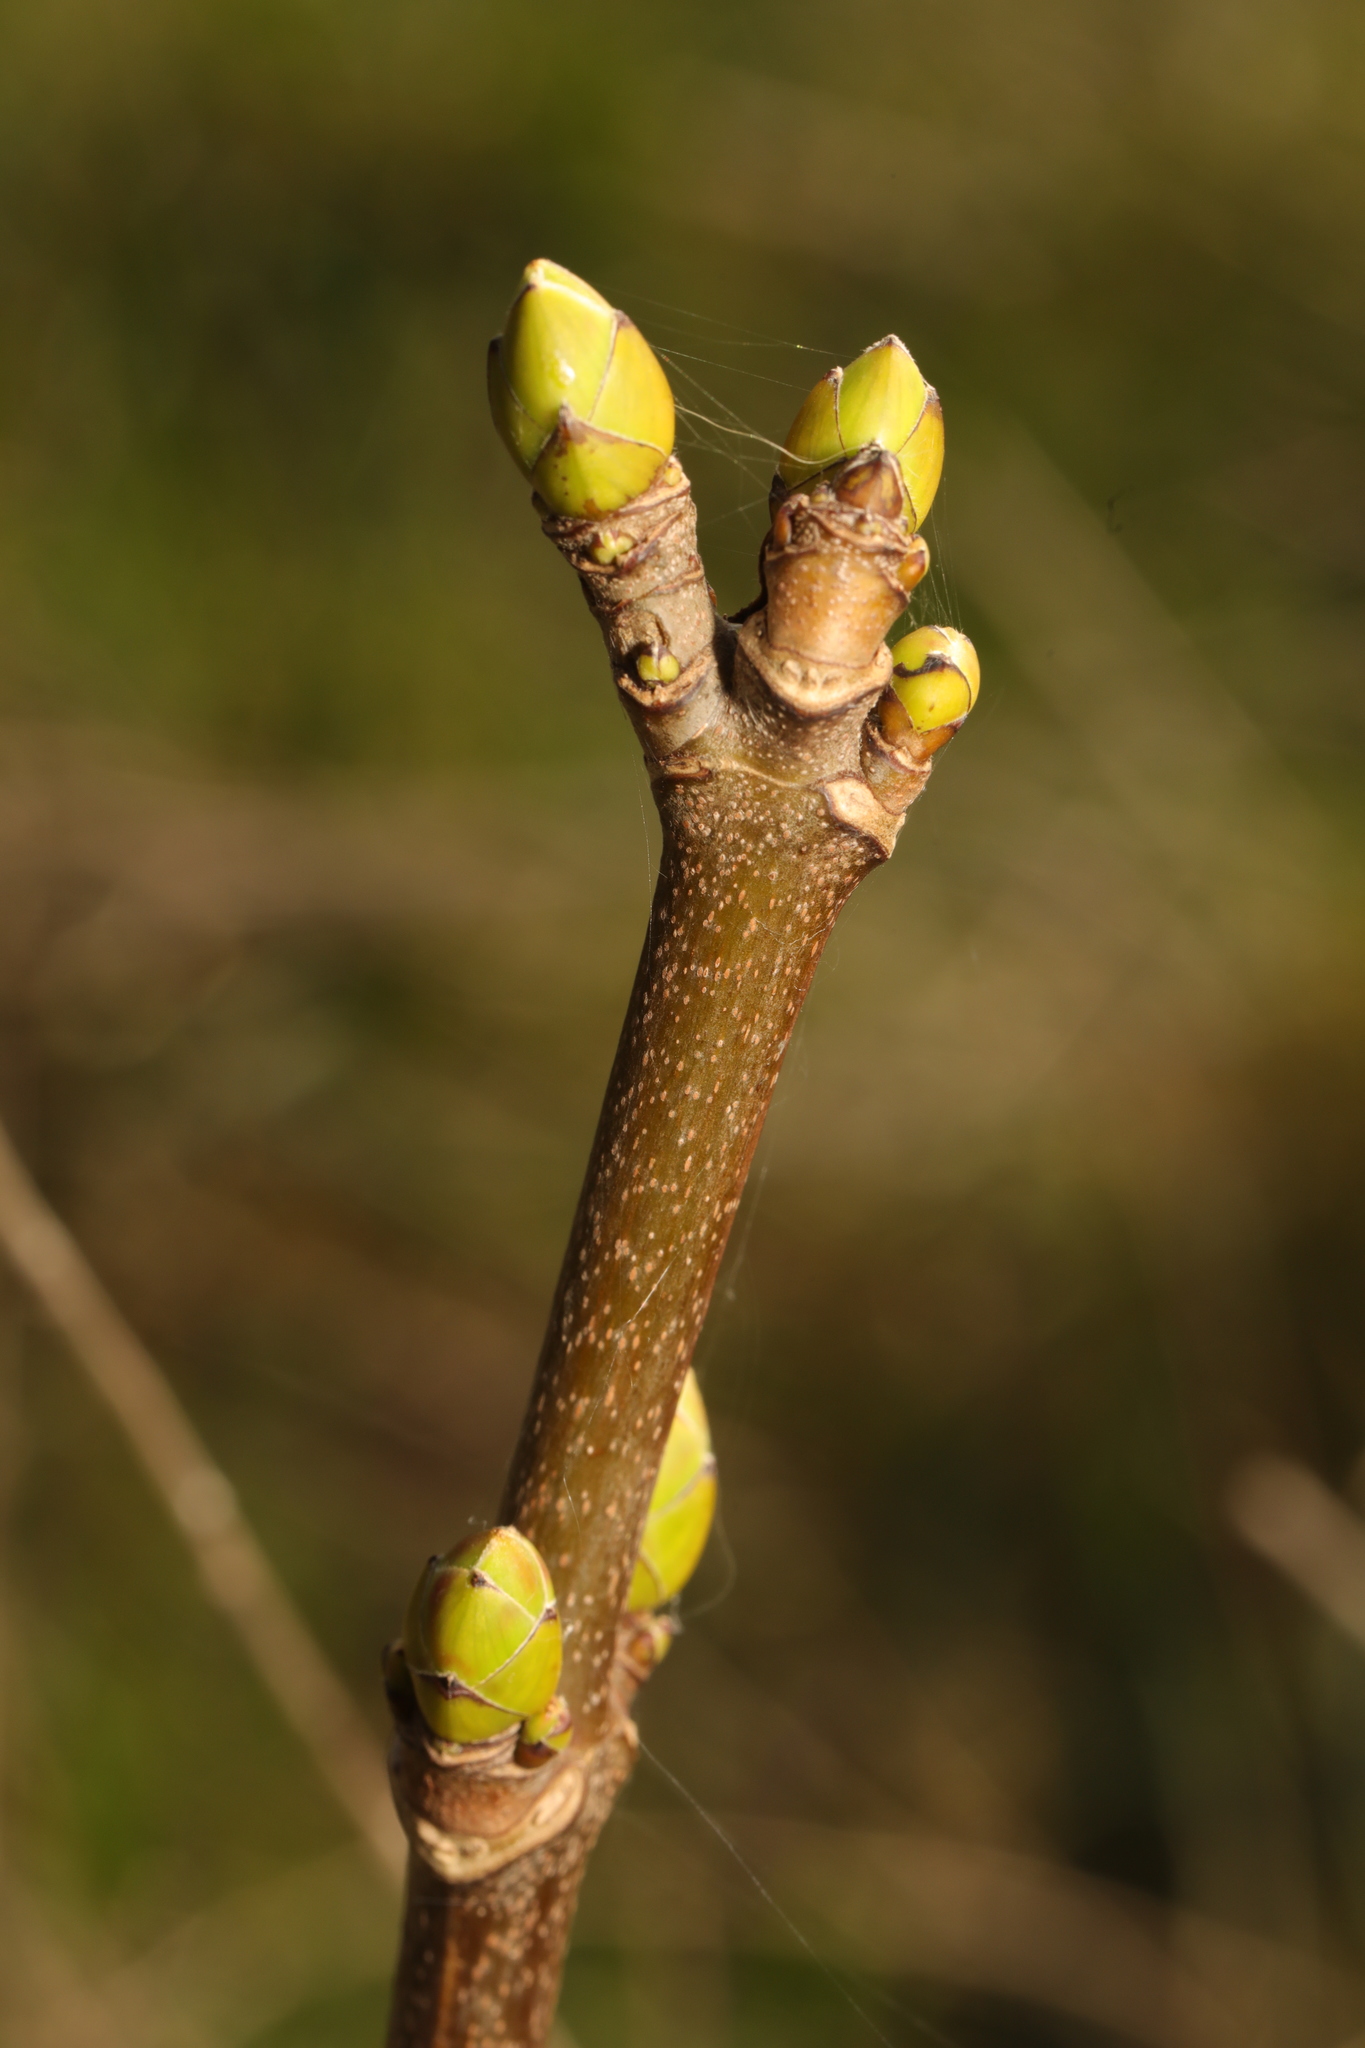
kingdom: Plantae
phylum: Tracheophyta
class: Magnoliopsida
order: Sapindales
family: Sapindaceae
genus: Acer
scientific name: Acer pseudoplatanus
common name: Sycamore
